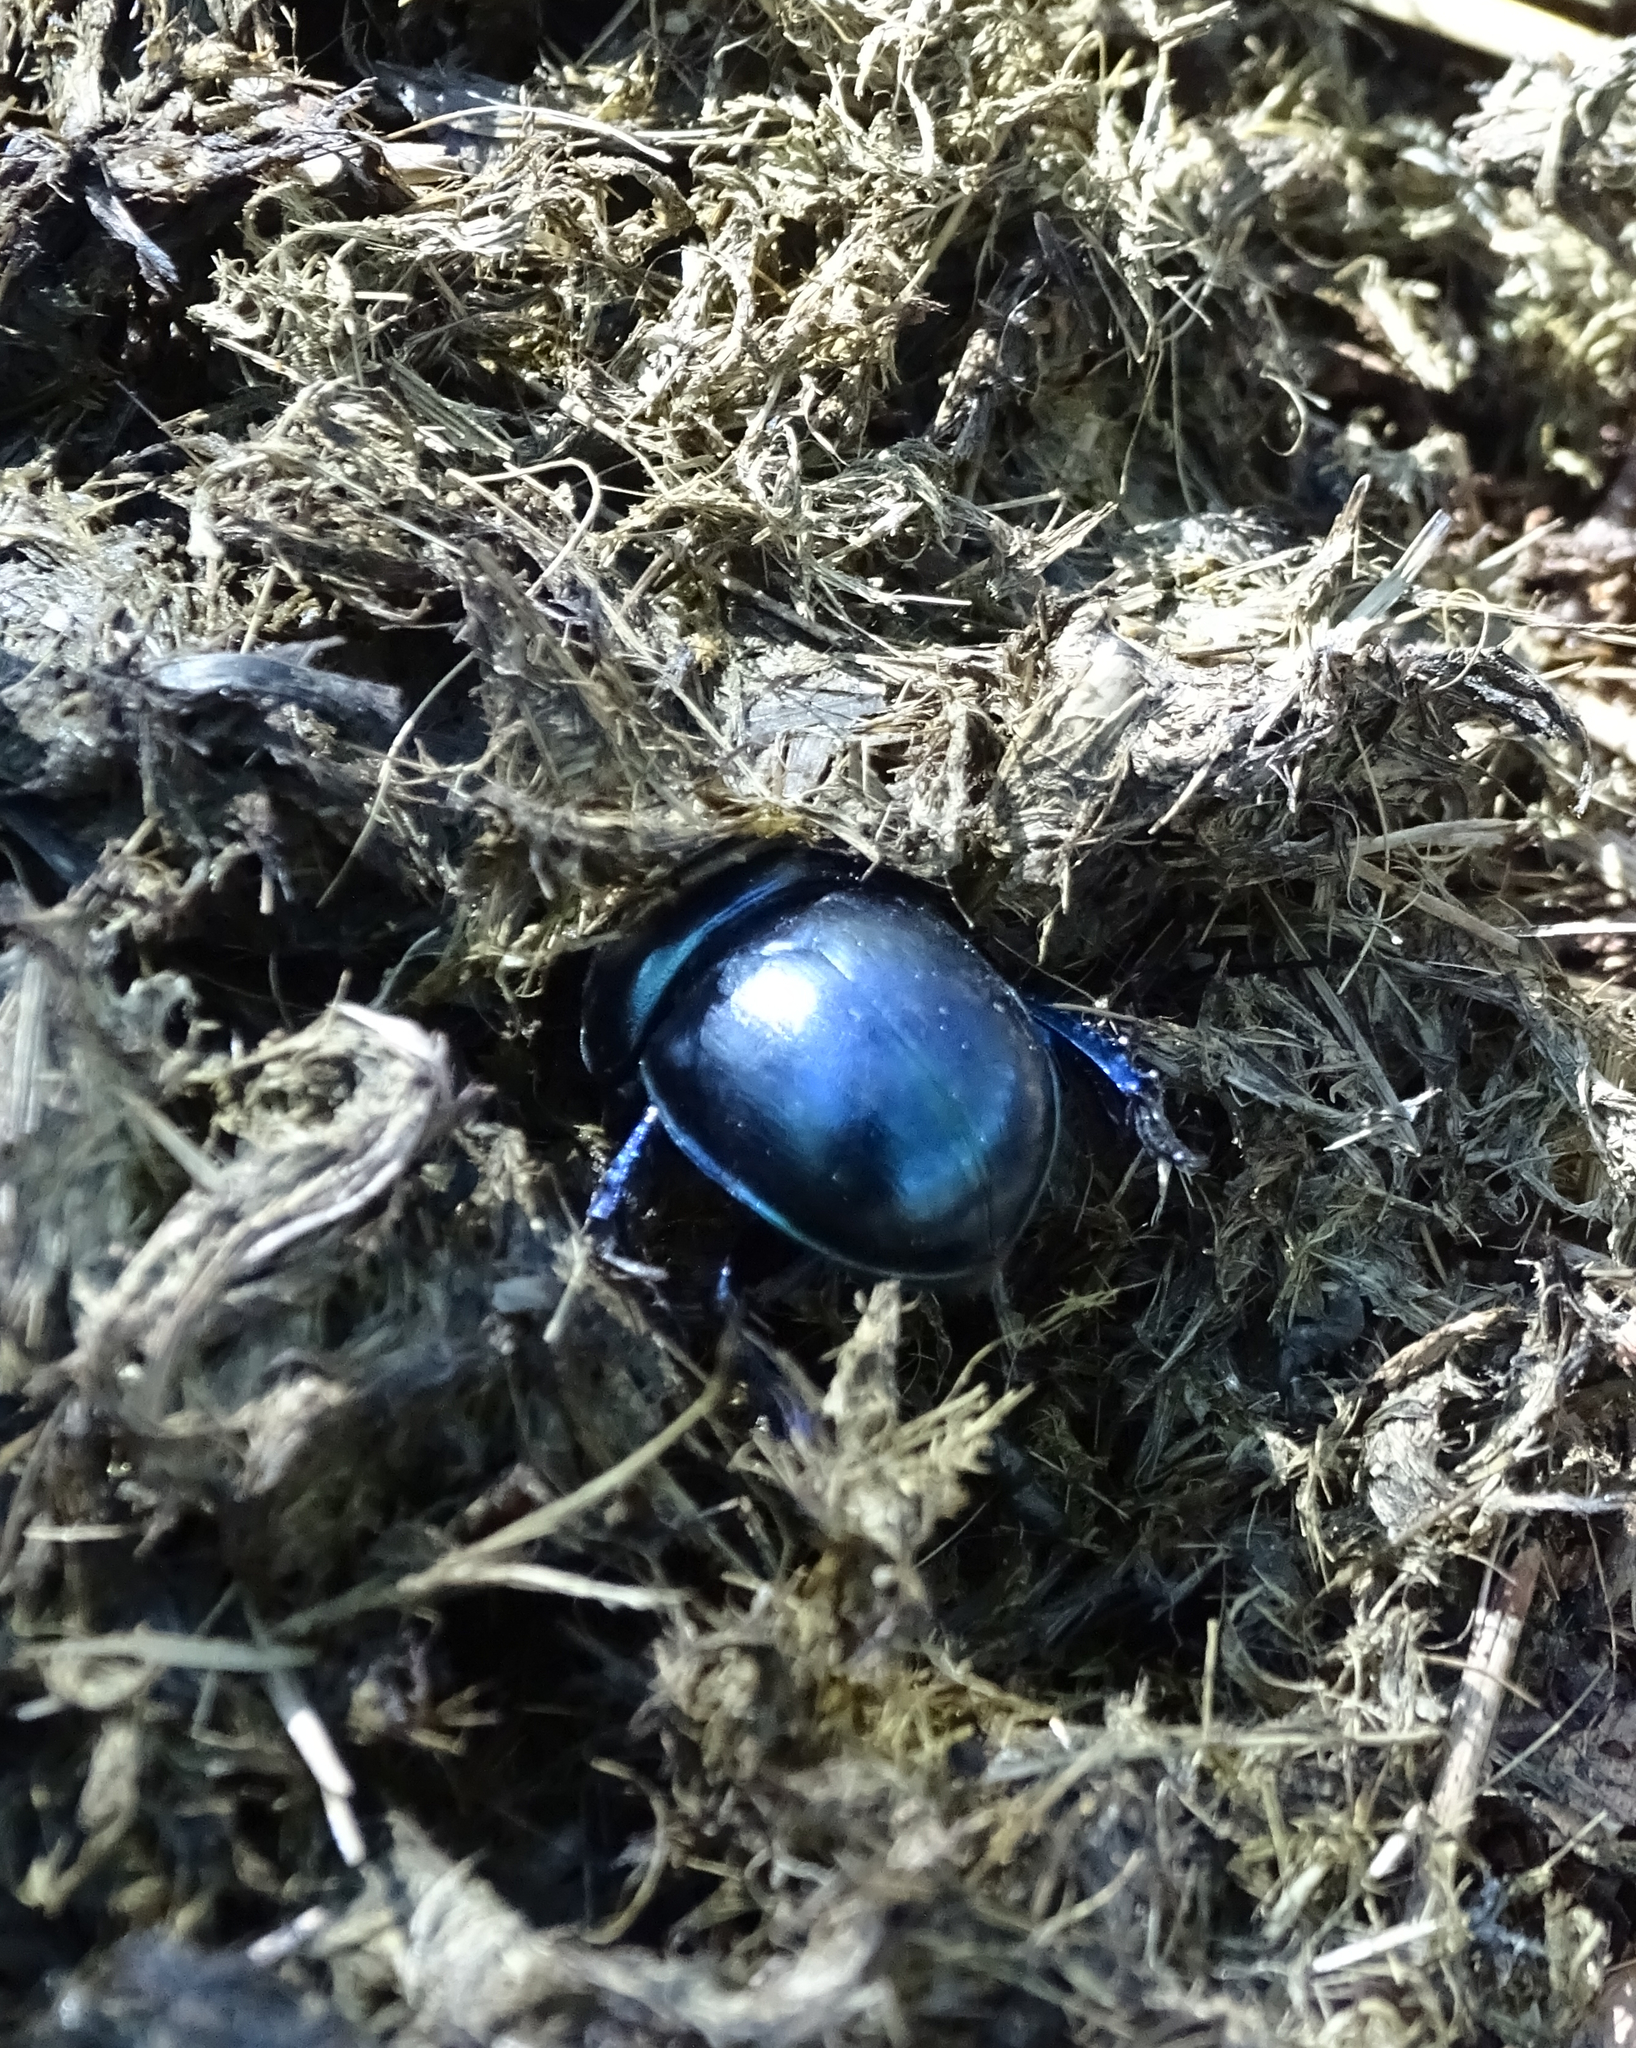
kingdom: Animalia
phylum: Arthropoda
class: Insecta
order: Coleoptera
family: Geotrupidae
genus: Trypocopris
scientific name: Trypocopris vernalis
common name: Spring dumbledor
